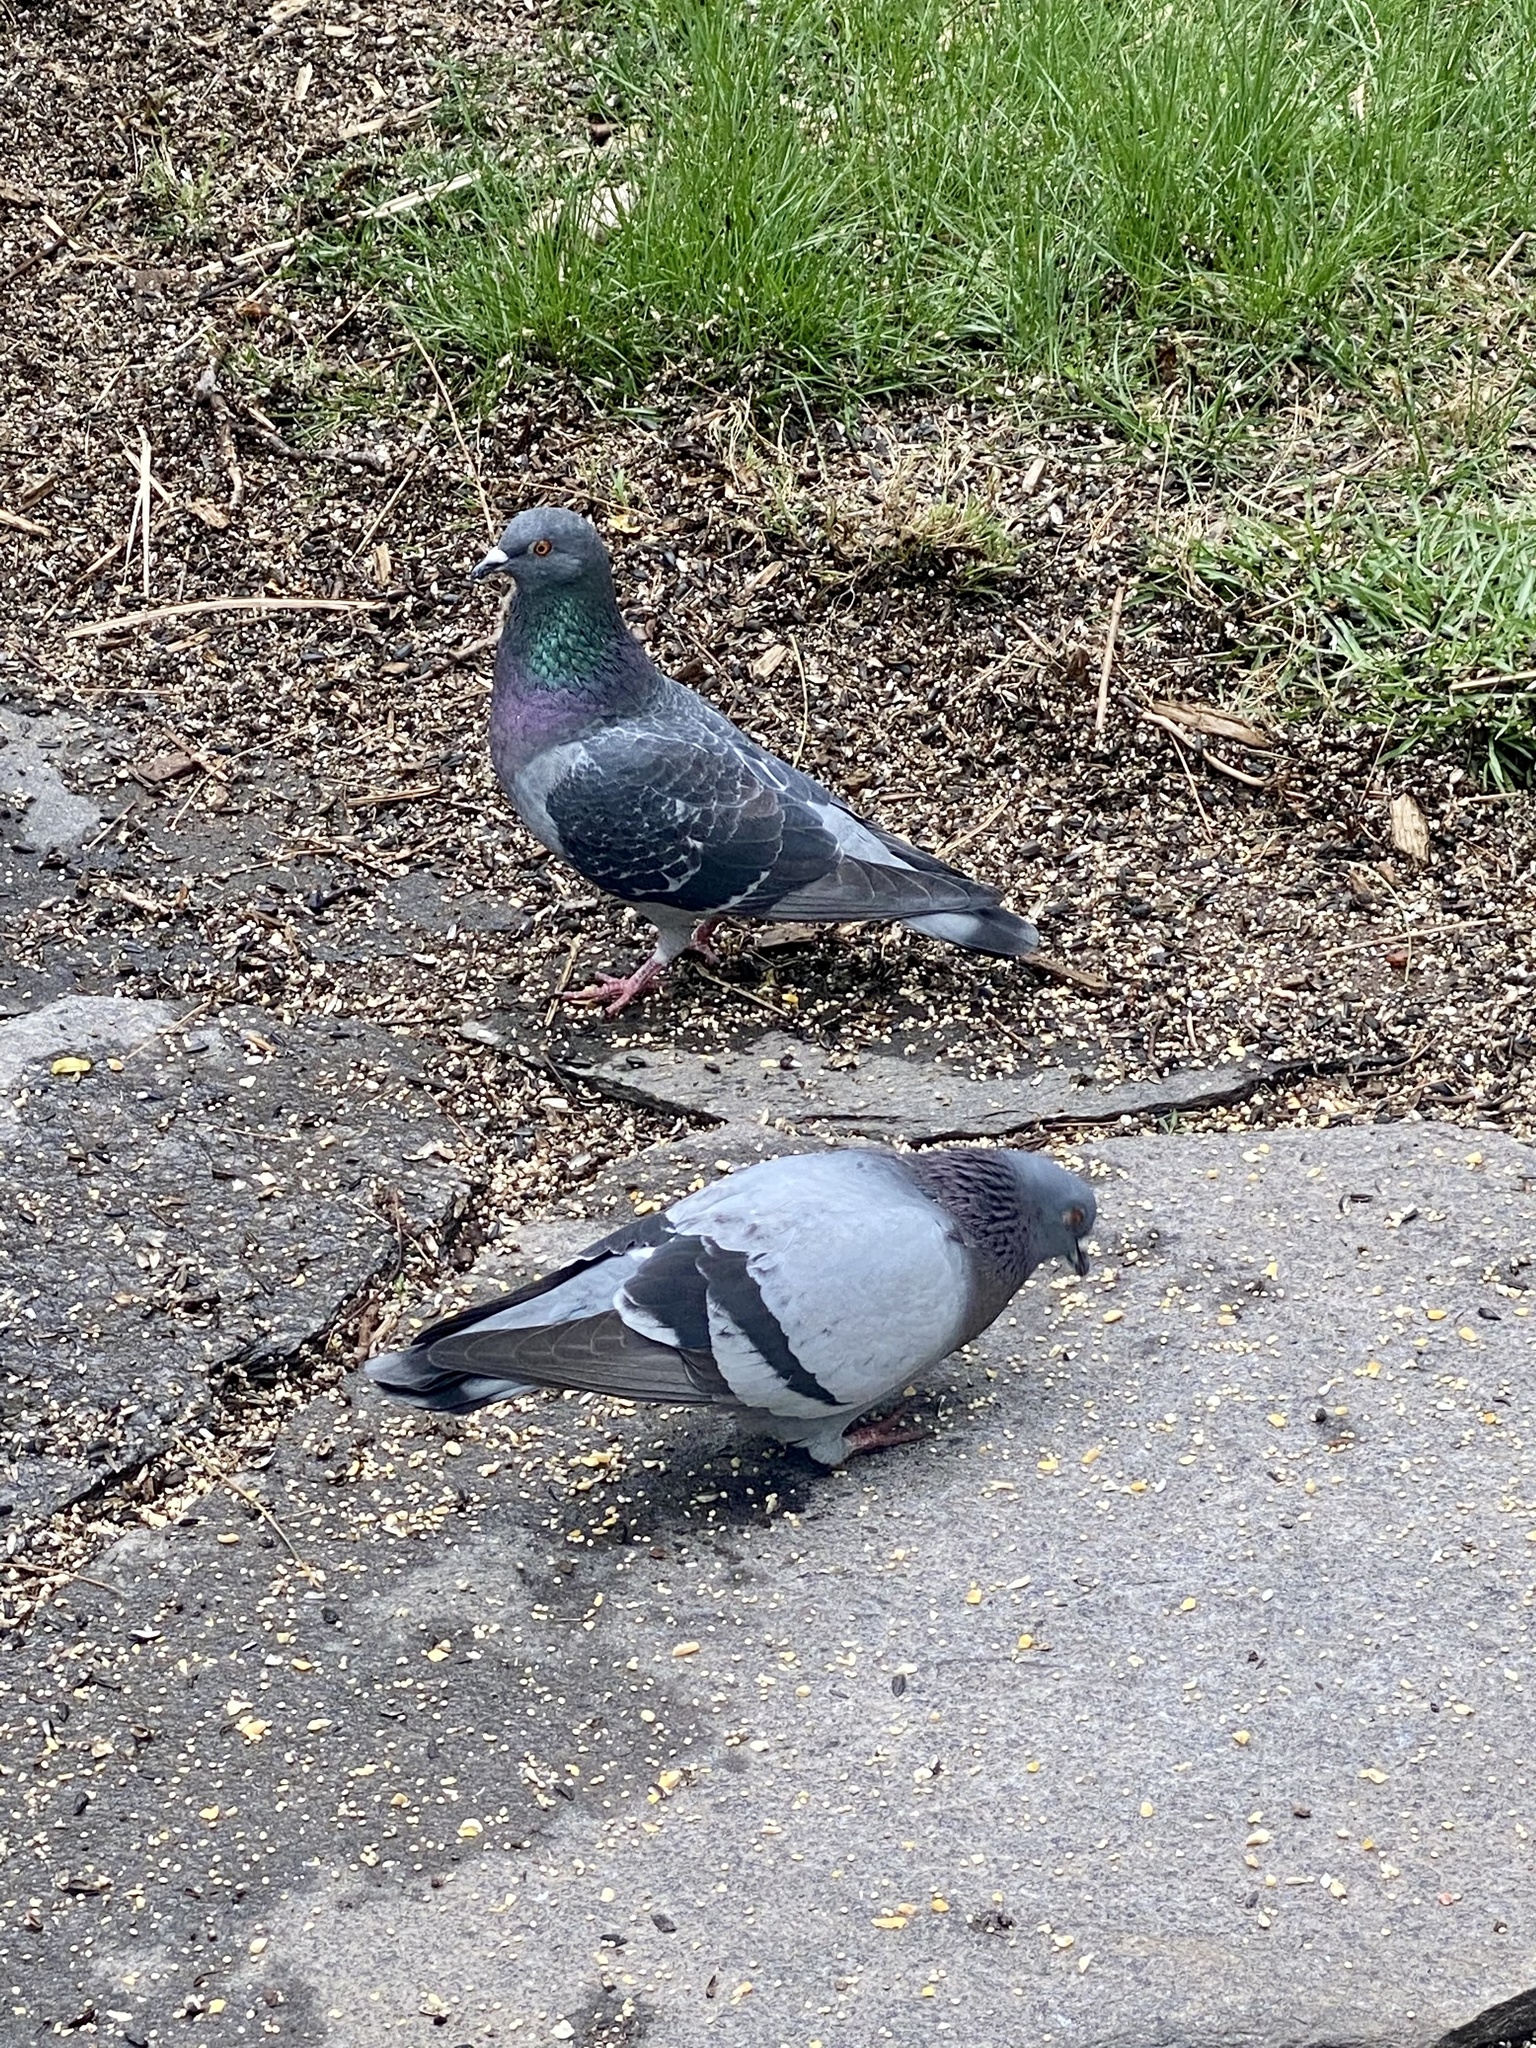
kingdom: Animalia
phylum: Chordata
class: Aves
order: Columbiformes
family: Columbidae
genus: Columba
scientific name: Columba livia
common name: Rock pigeon
